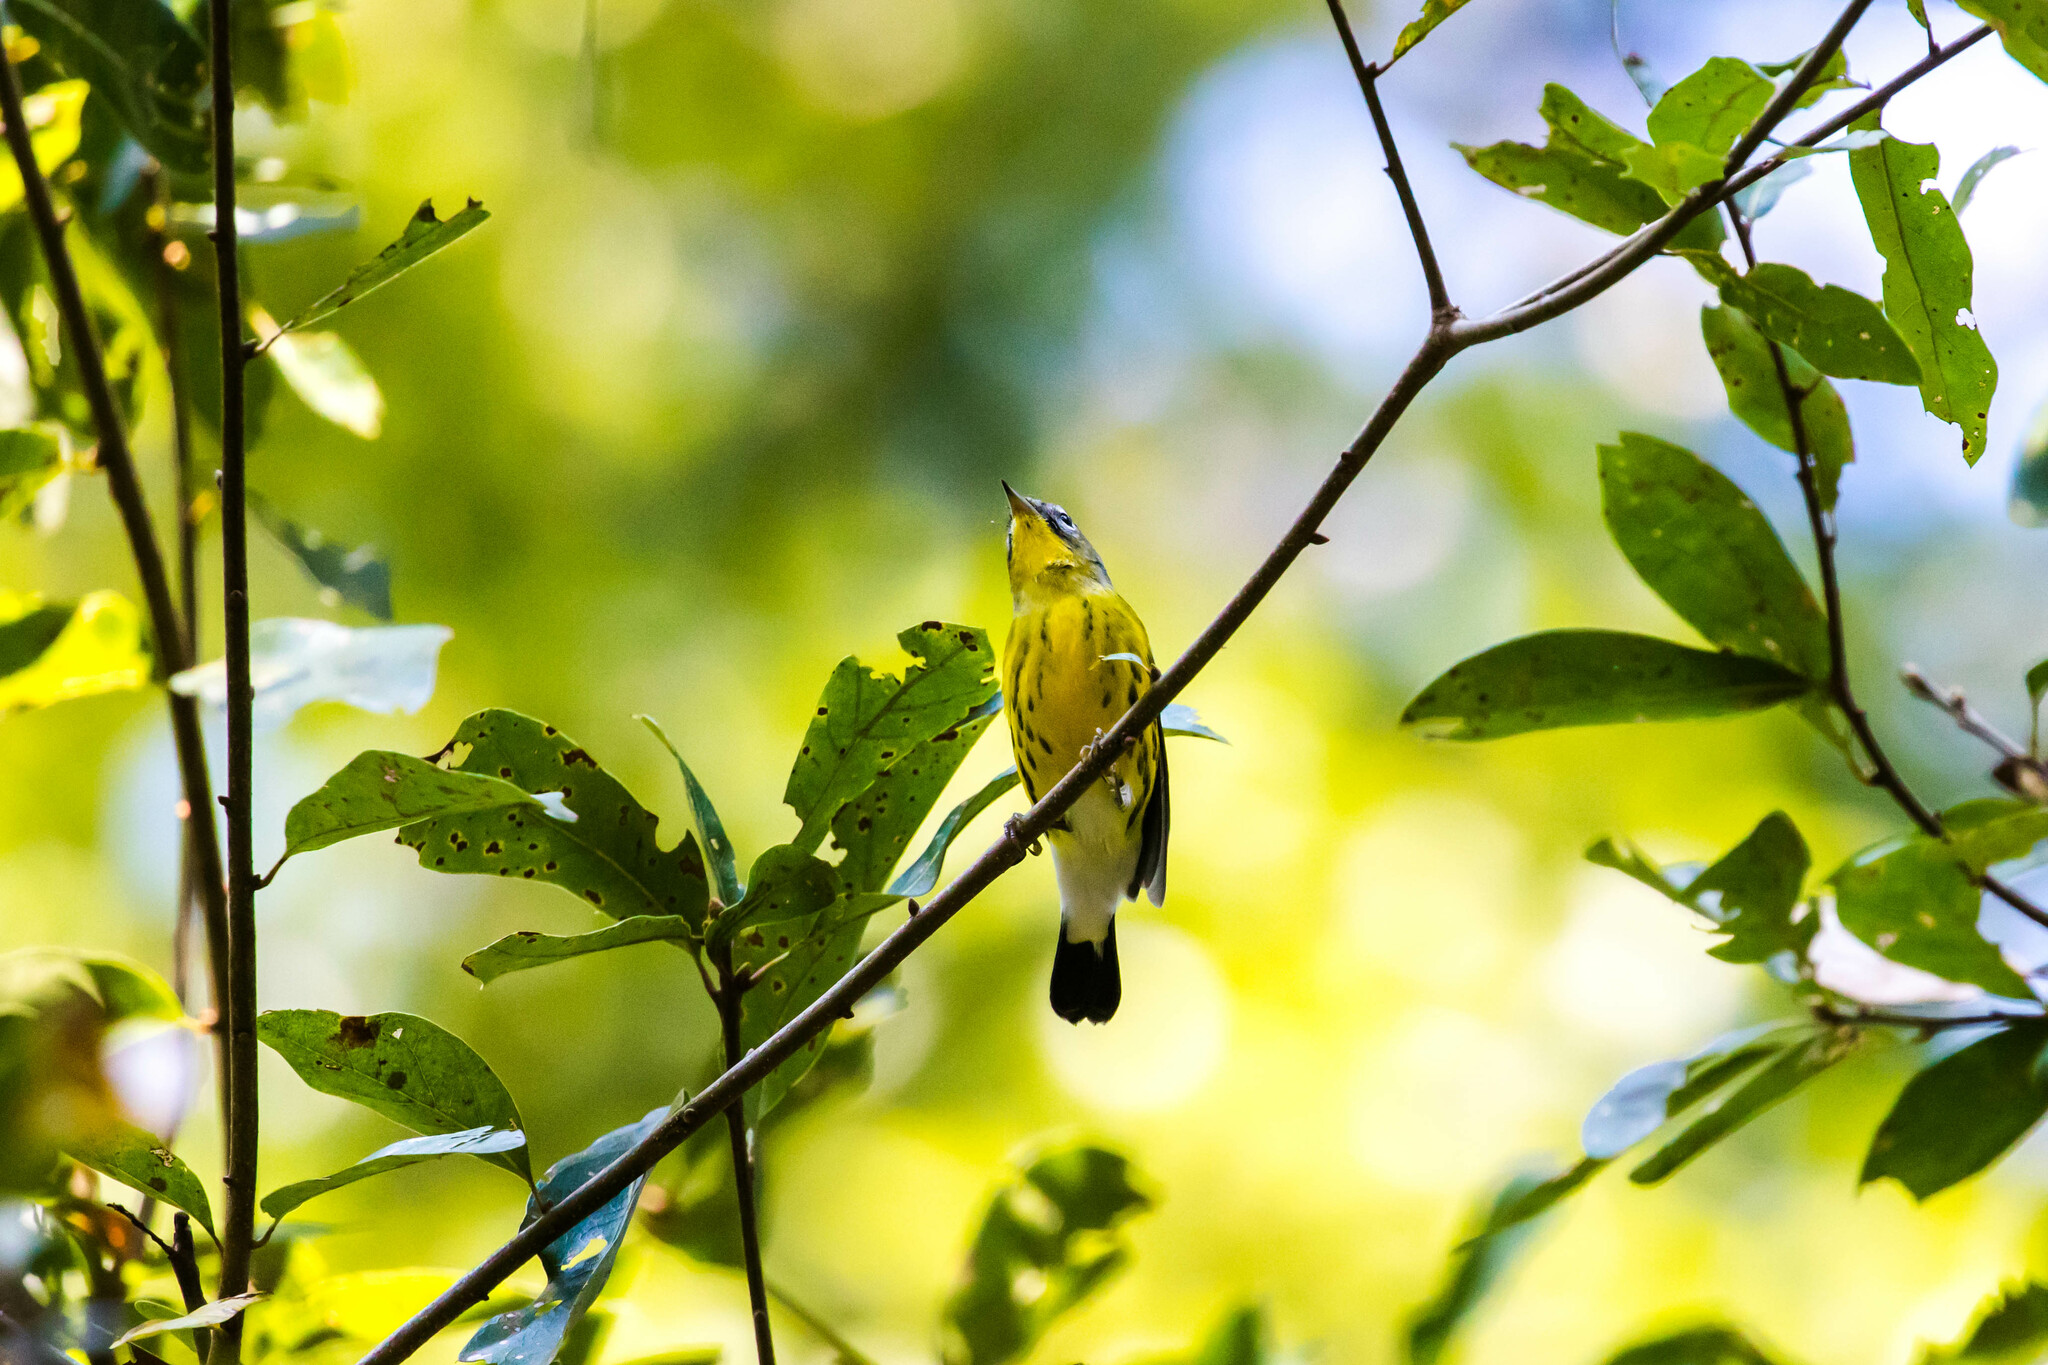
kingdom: Animalia
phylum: Chordata
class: Aves
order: Passeriformes
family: Parulidae
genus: Setophaga
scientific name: Setophaga magnolia
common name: Magnolia warbler
